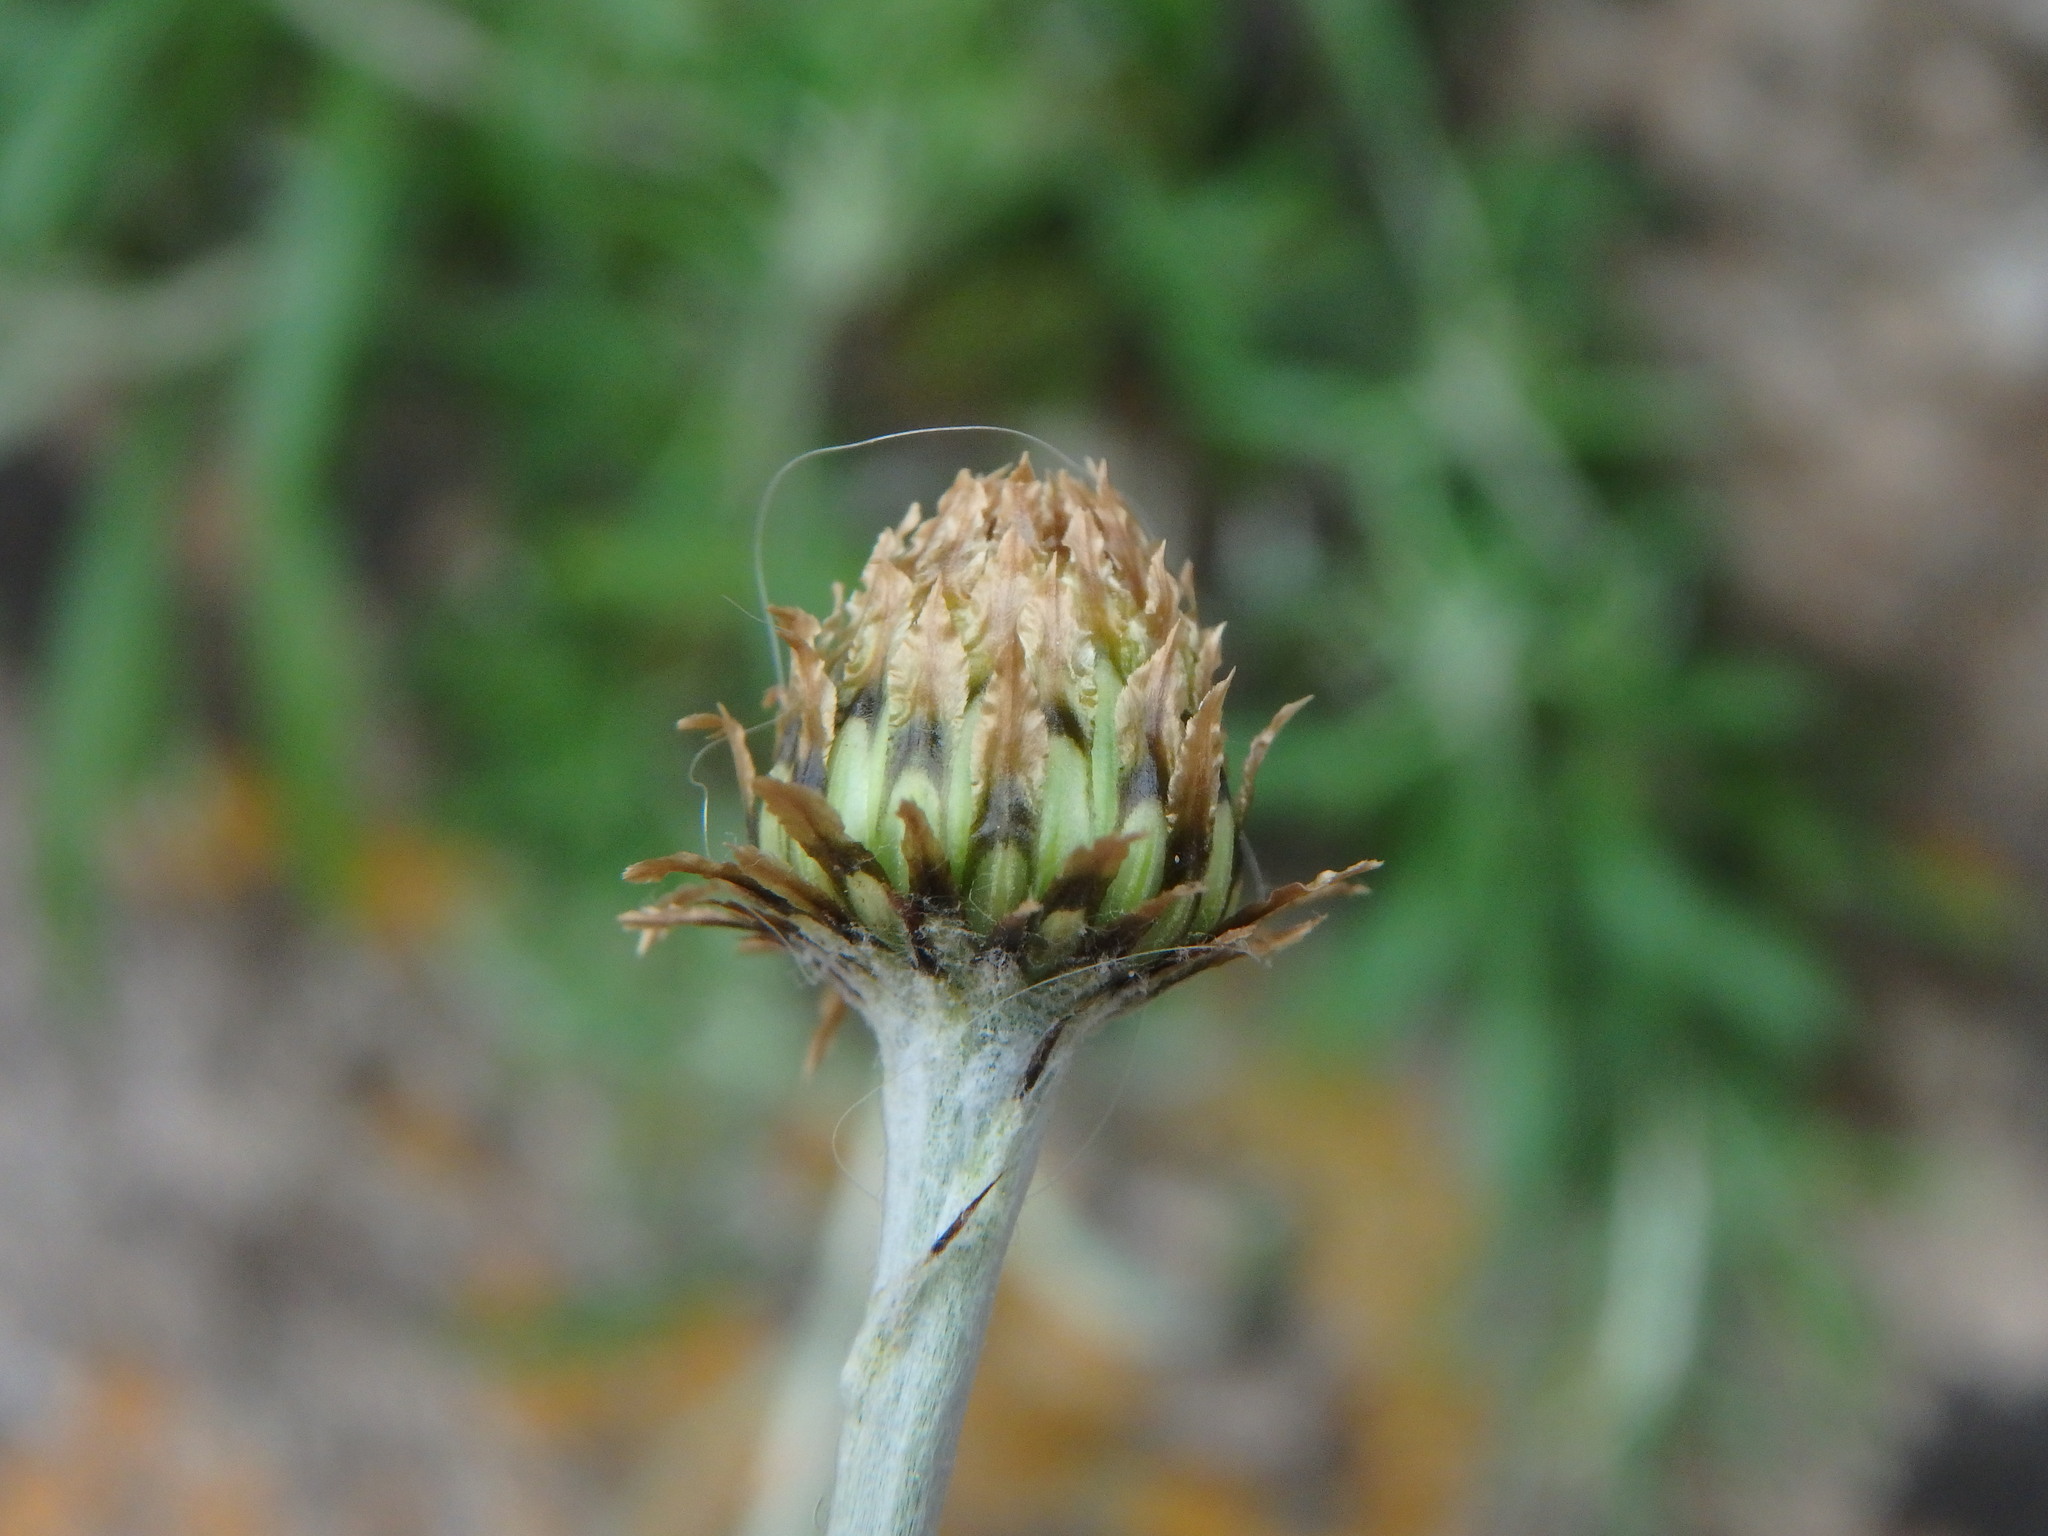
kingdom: Plantae
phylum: Tracheophyta
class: Magnoliopsida
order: Asterales
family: Asteraceae
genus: Phagnalon
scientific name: Phagnalon saxatile
